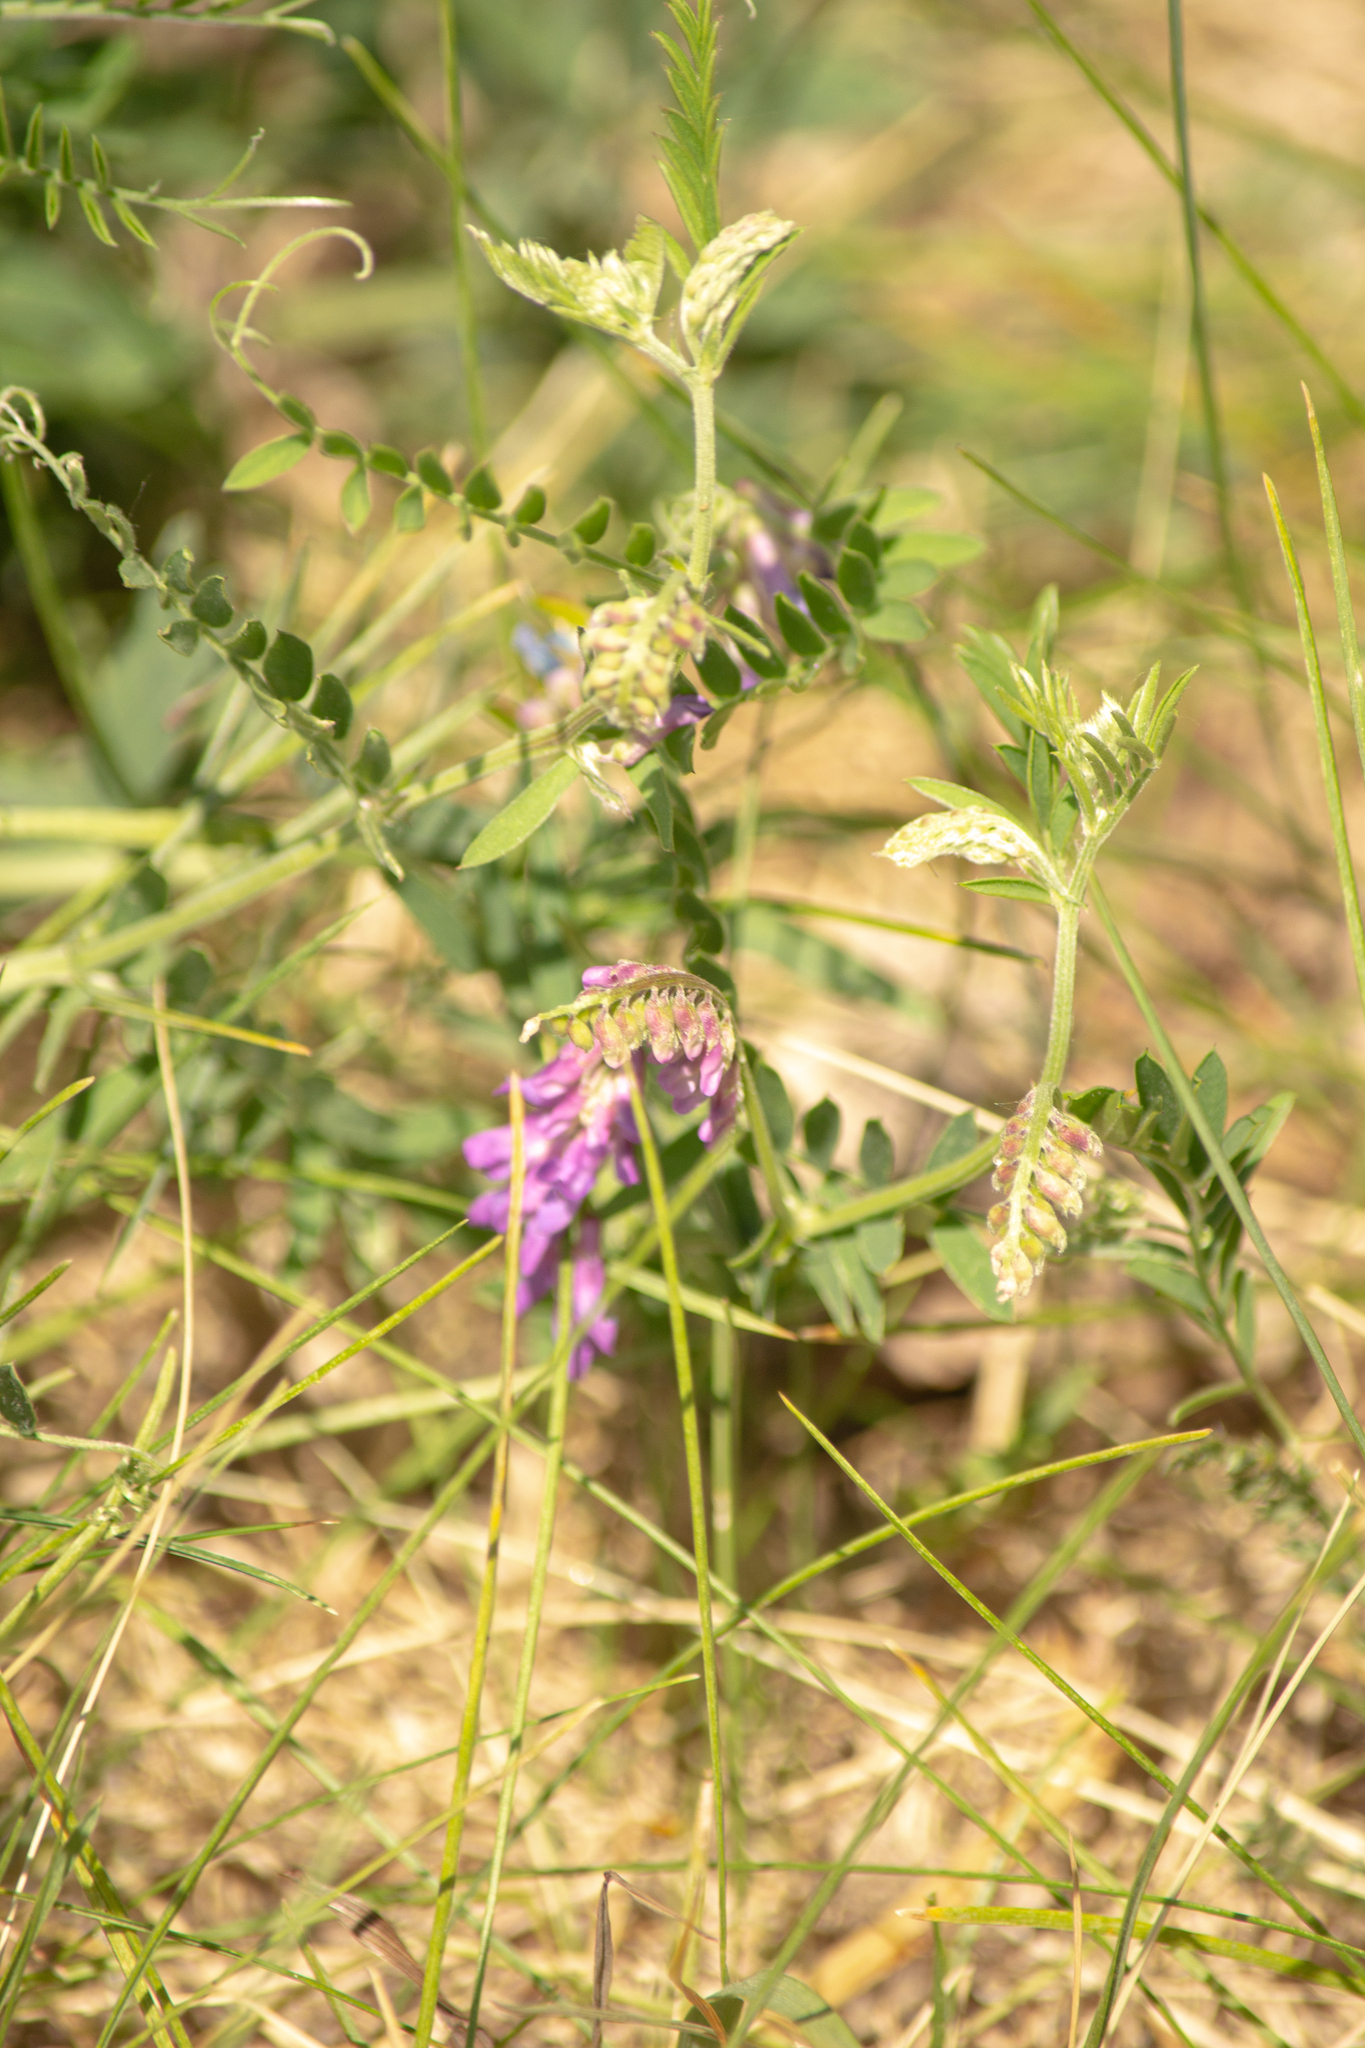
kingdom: Plantae
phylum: Tracheophyta
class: Magnoliopsida
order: Fabales
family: Fabaceae
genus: Vicia
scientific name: Vicia cracca
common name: Bird vetch
